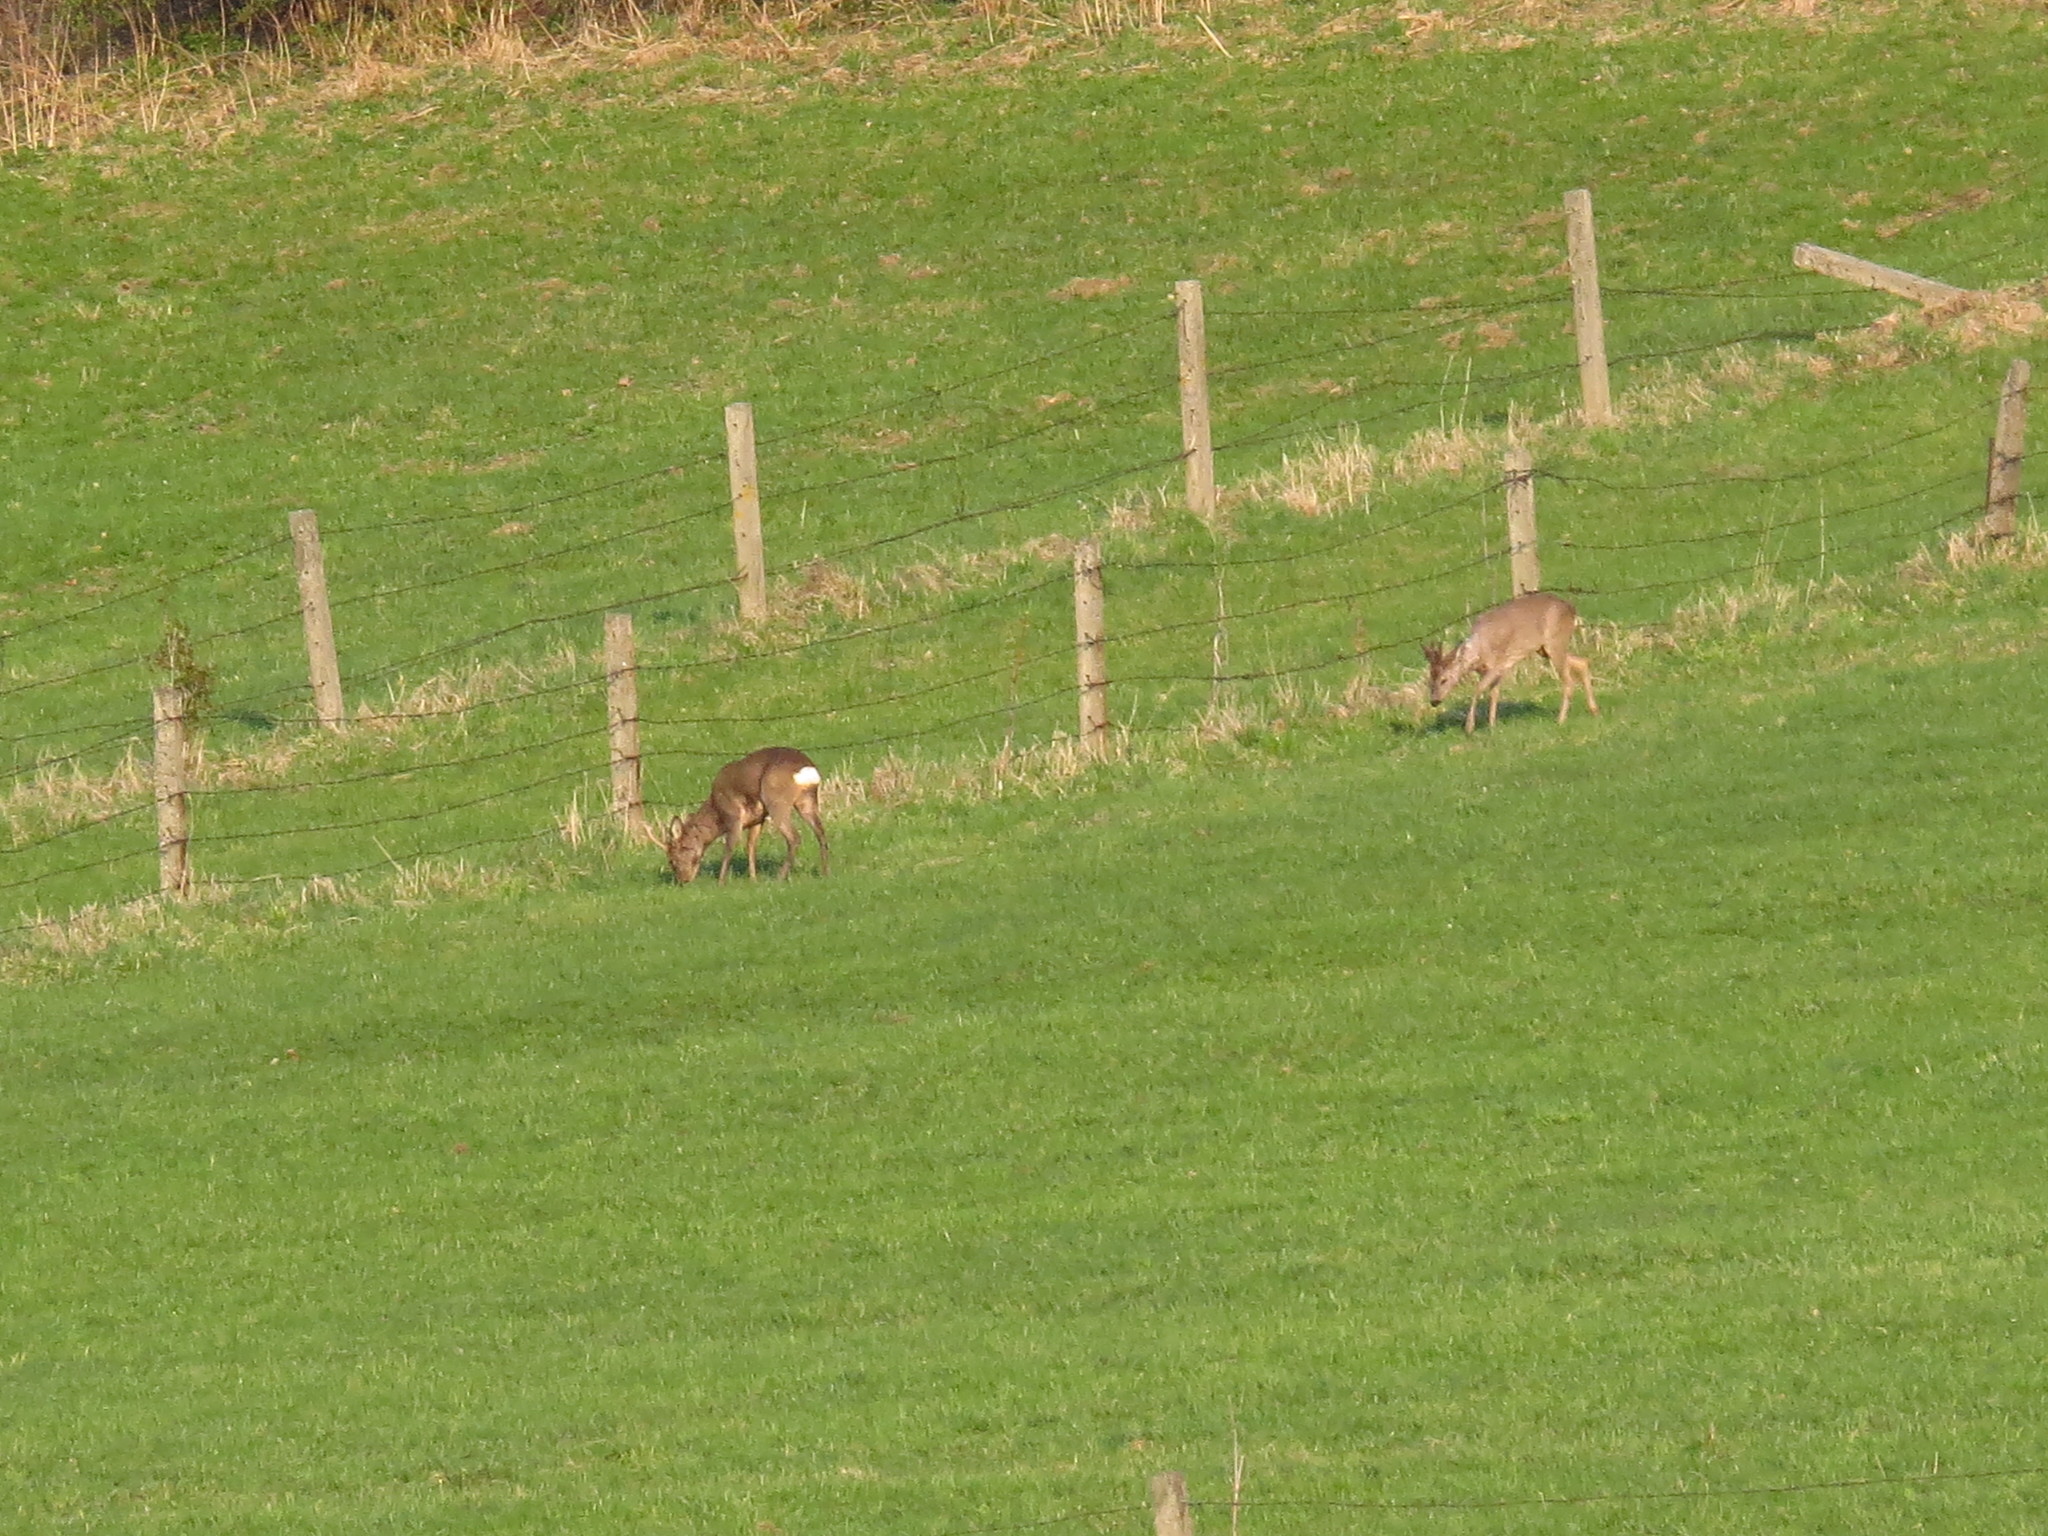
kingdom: Animalia
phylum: Chordata
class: Mammalia
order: Artiodactyla
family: Cervidae
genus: Capreolus
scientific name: Capreolus capreolus
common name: Western roe deer
